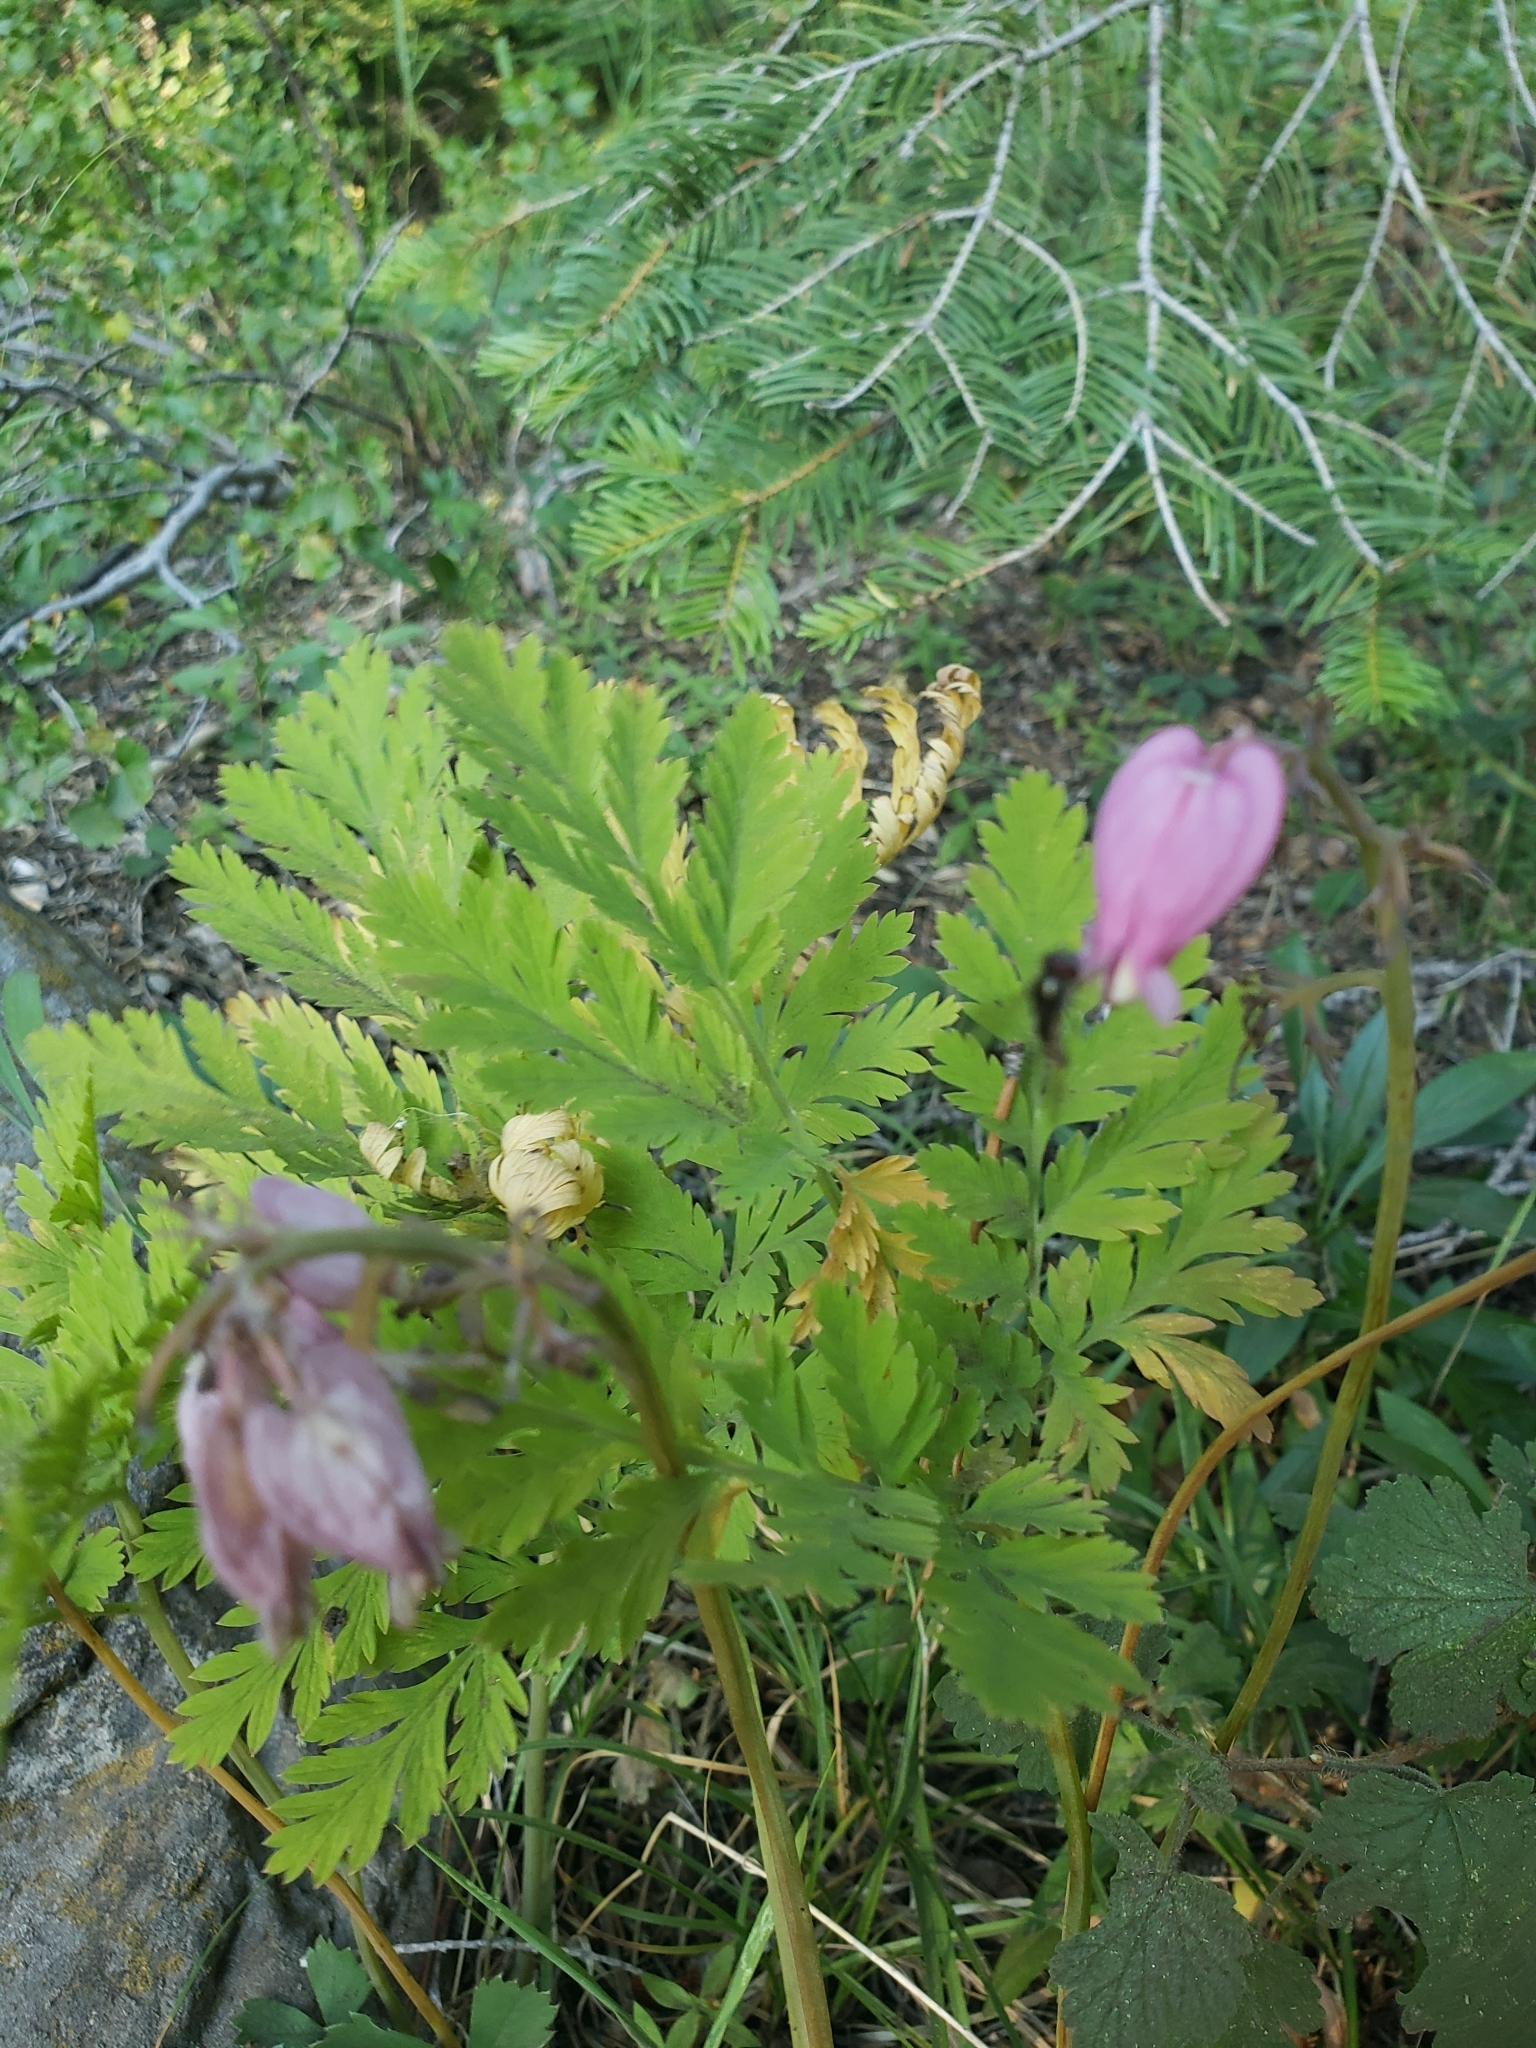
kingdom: Plantae
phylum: Tracheophyta
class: Magnoliopsida
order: Ranunculales
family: Papaveraceae
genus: Dicentra
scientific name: Dicentra formosa
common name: Bleeding-heart
